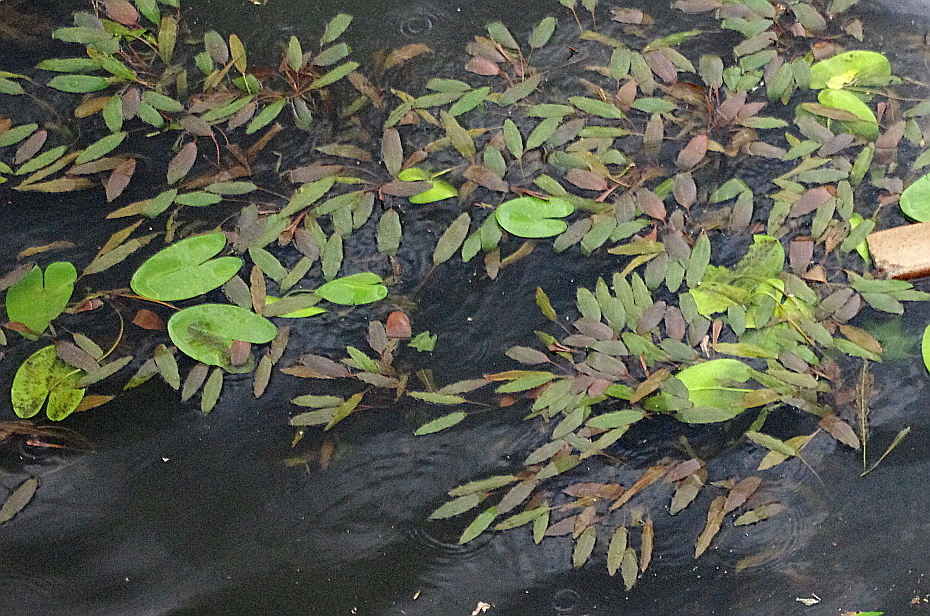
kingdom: Plantae
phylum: Tracheophyta
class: Liliopsida
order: Alismatales
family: Potamogetonaceae
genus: Potamogeton
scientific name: Potamogeton nodosus
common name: Loddon pondweed
